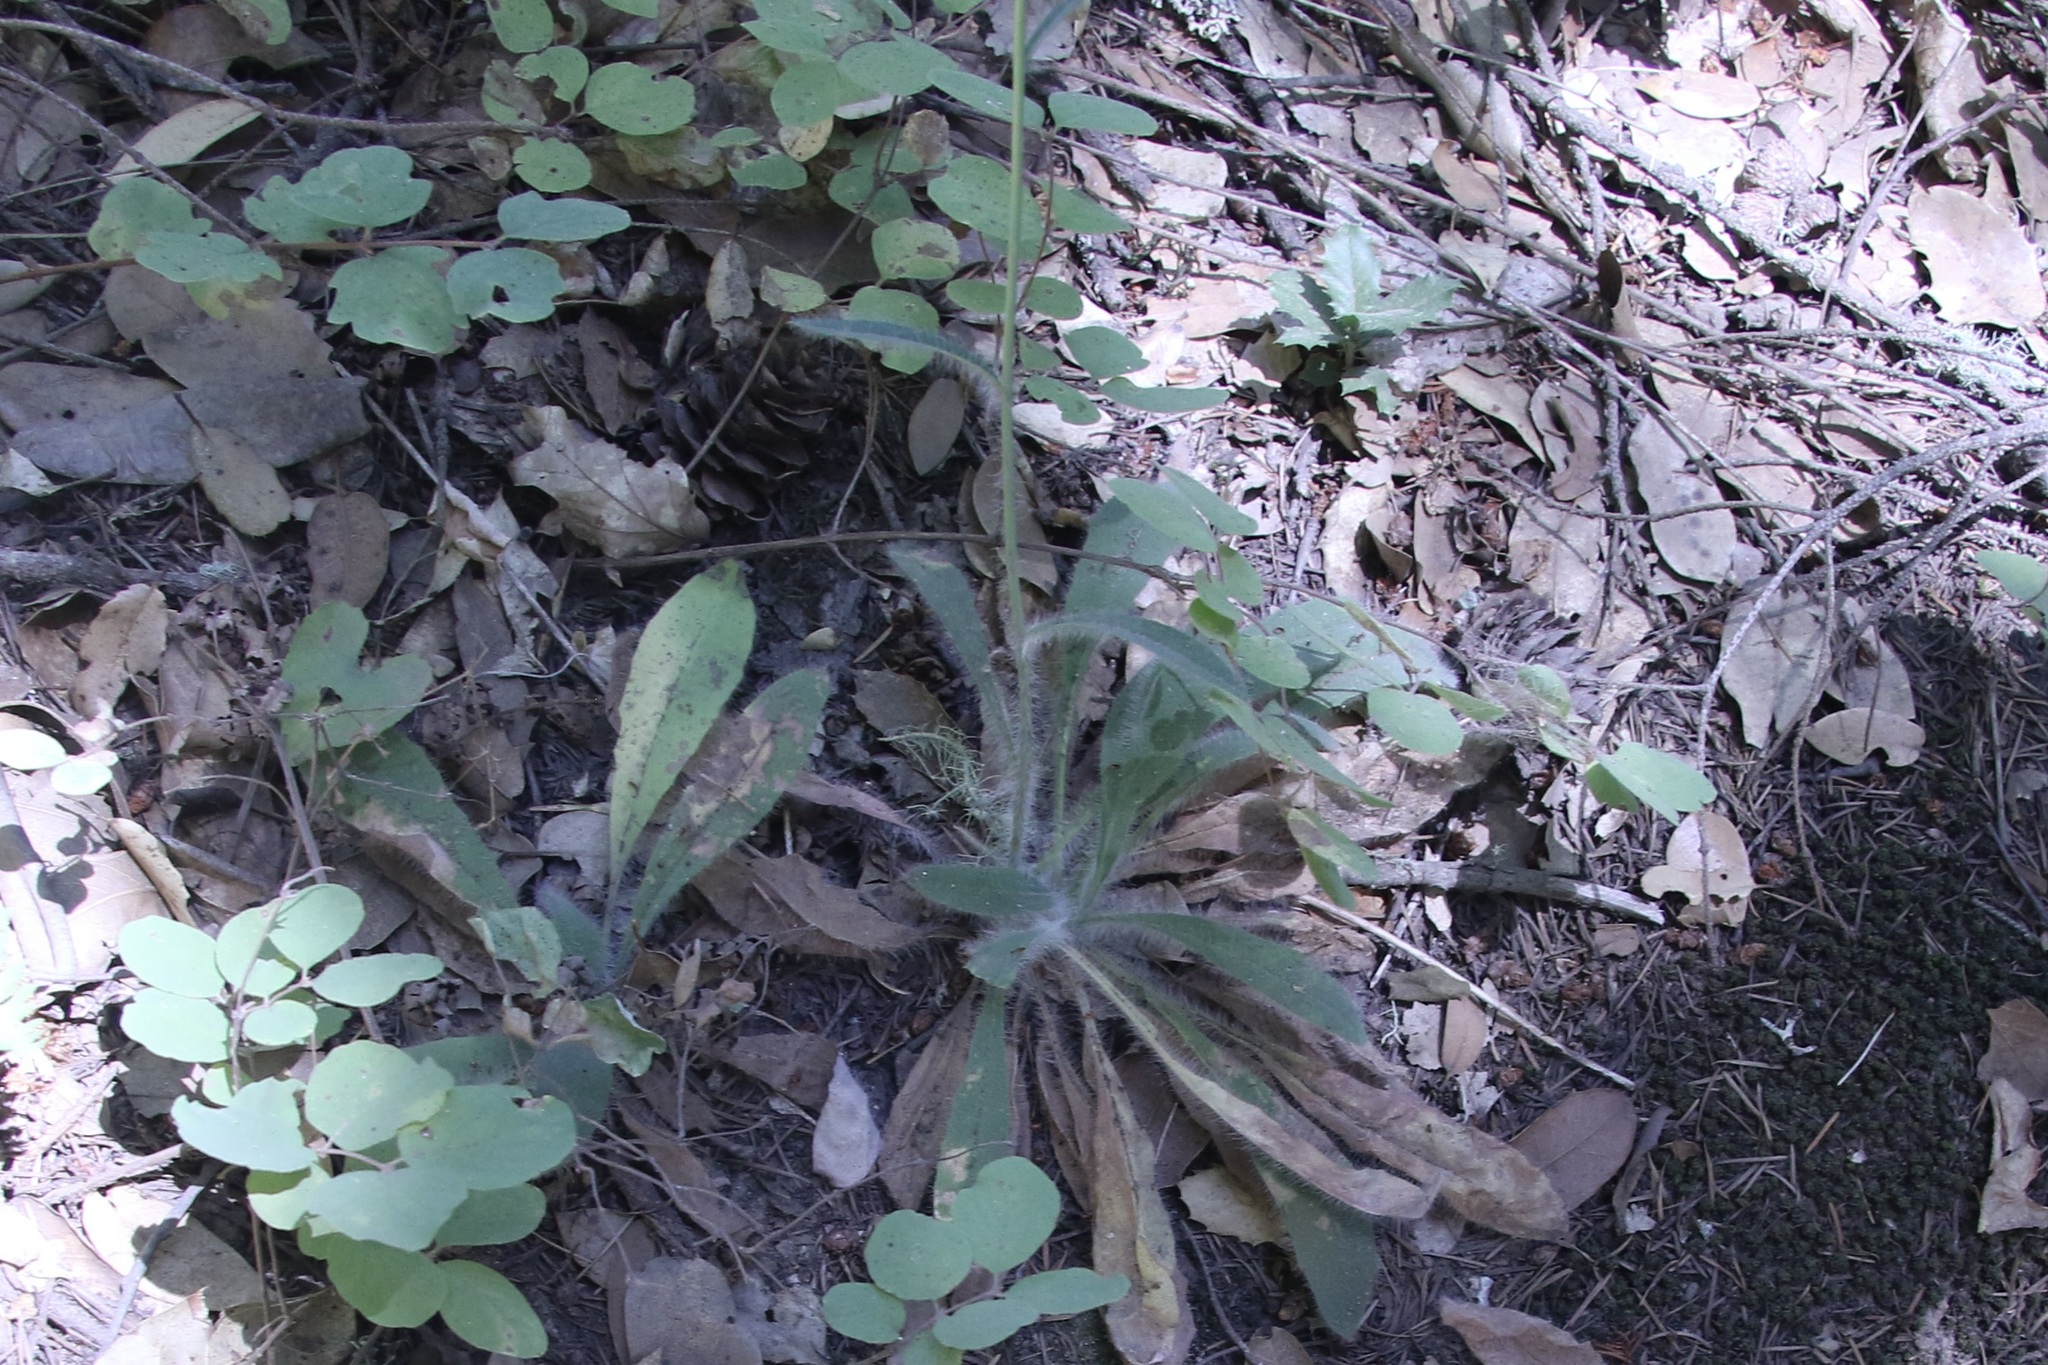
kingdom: Plantae
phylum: Tracheophyta
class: Magnoliopsida
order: Asterales
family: Asteraceae
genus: Hieracium
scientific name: Hieracium albiflorum
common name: White hawkweed
